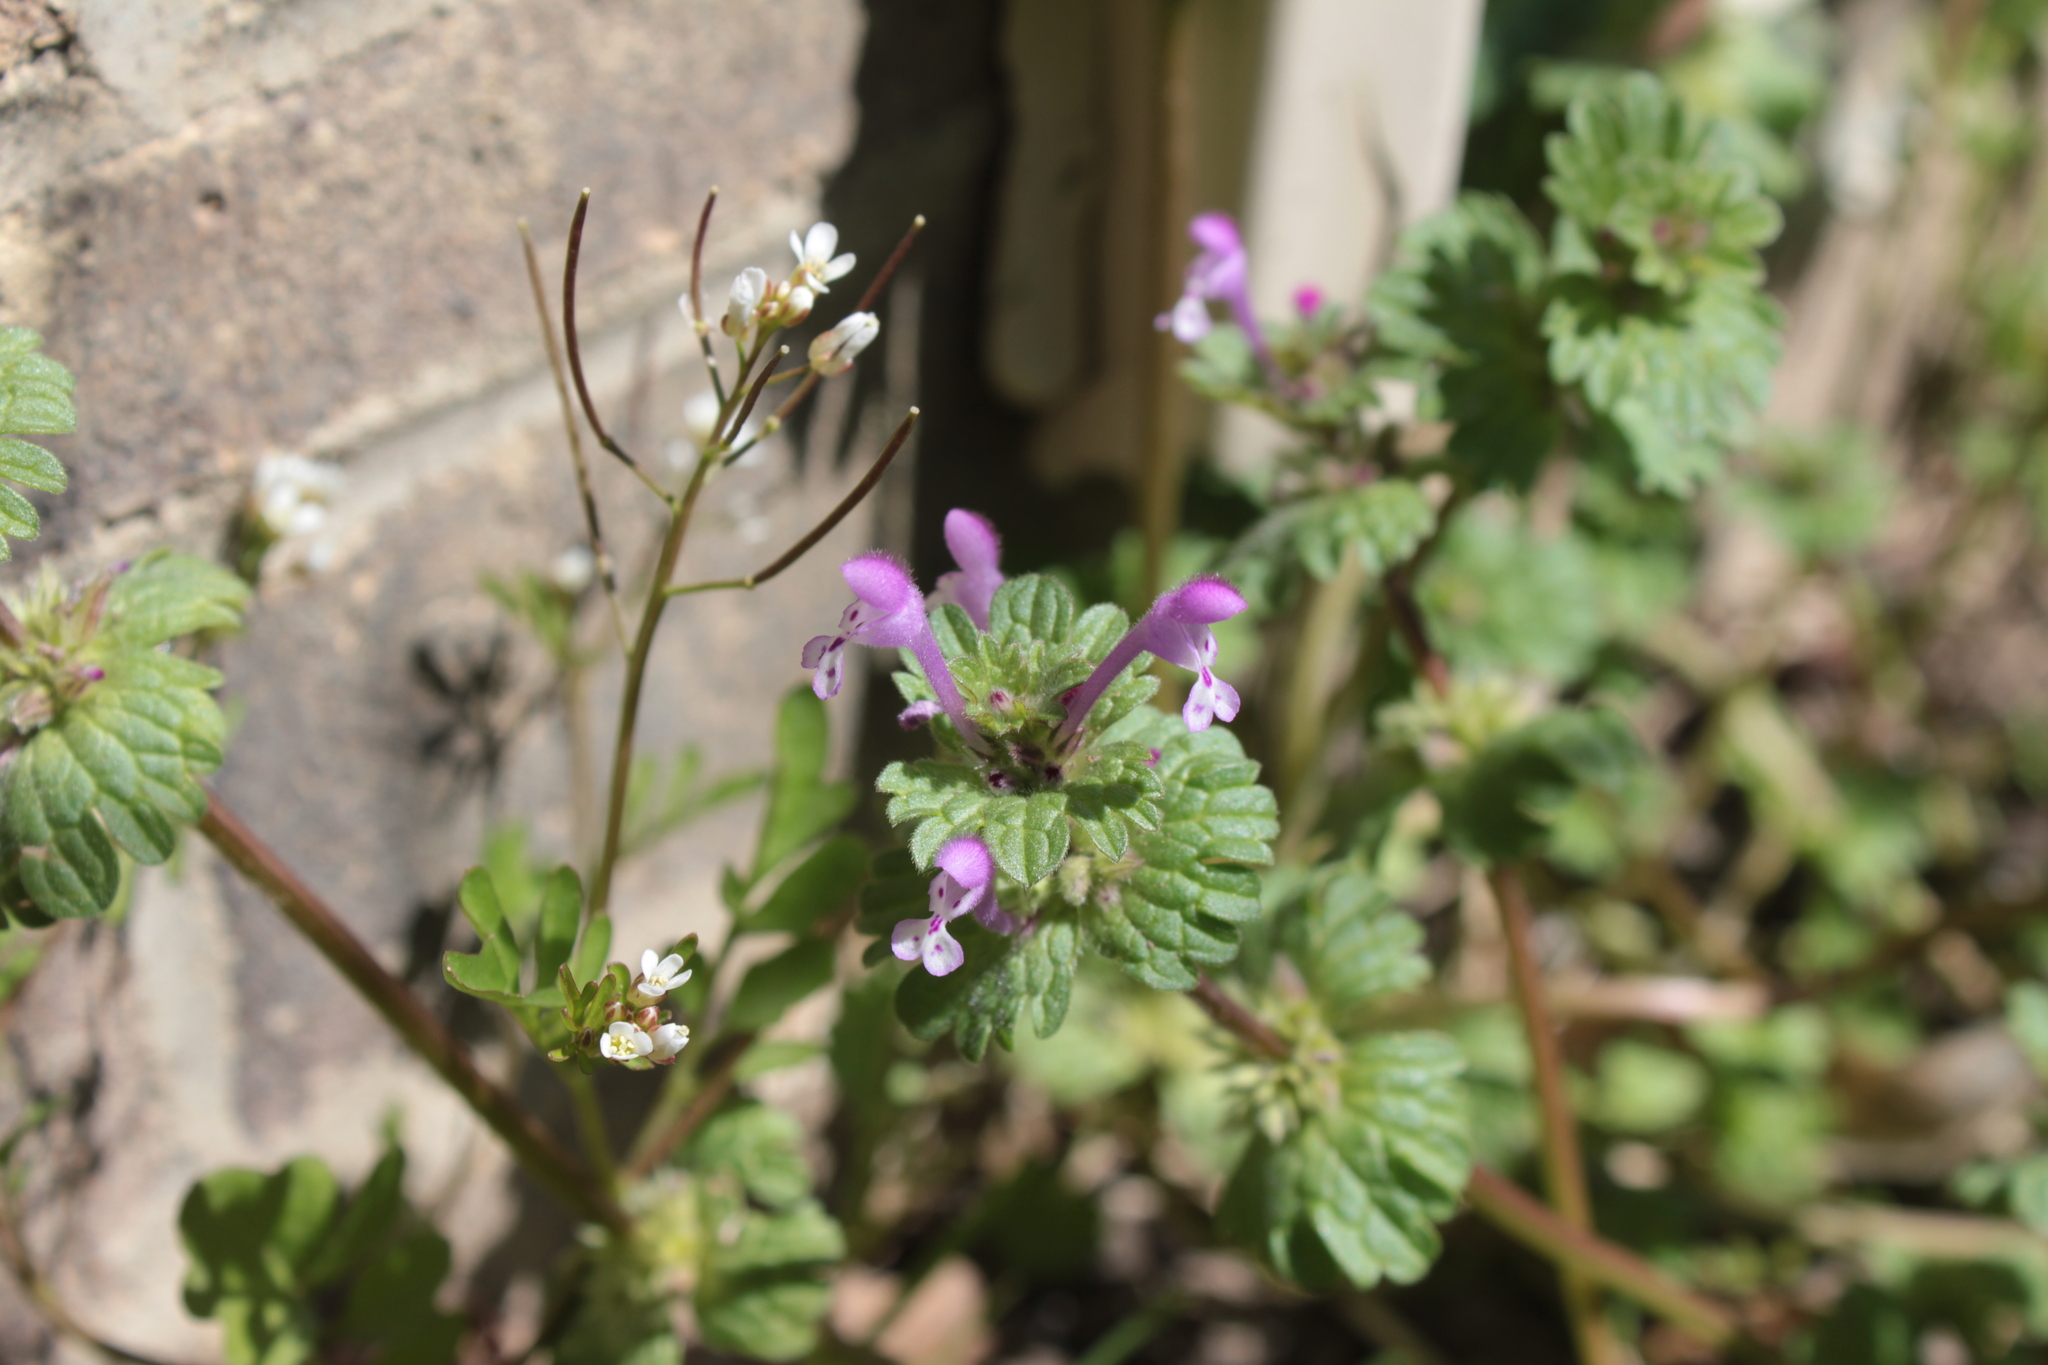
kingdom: Plantae
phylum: Tracheophyta
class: Magnoliopsida
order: Lamiales
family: Lamiaceae
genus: Lamium
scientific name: Lamium amplexicaule
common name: Henbit dead-nettle
